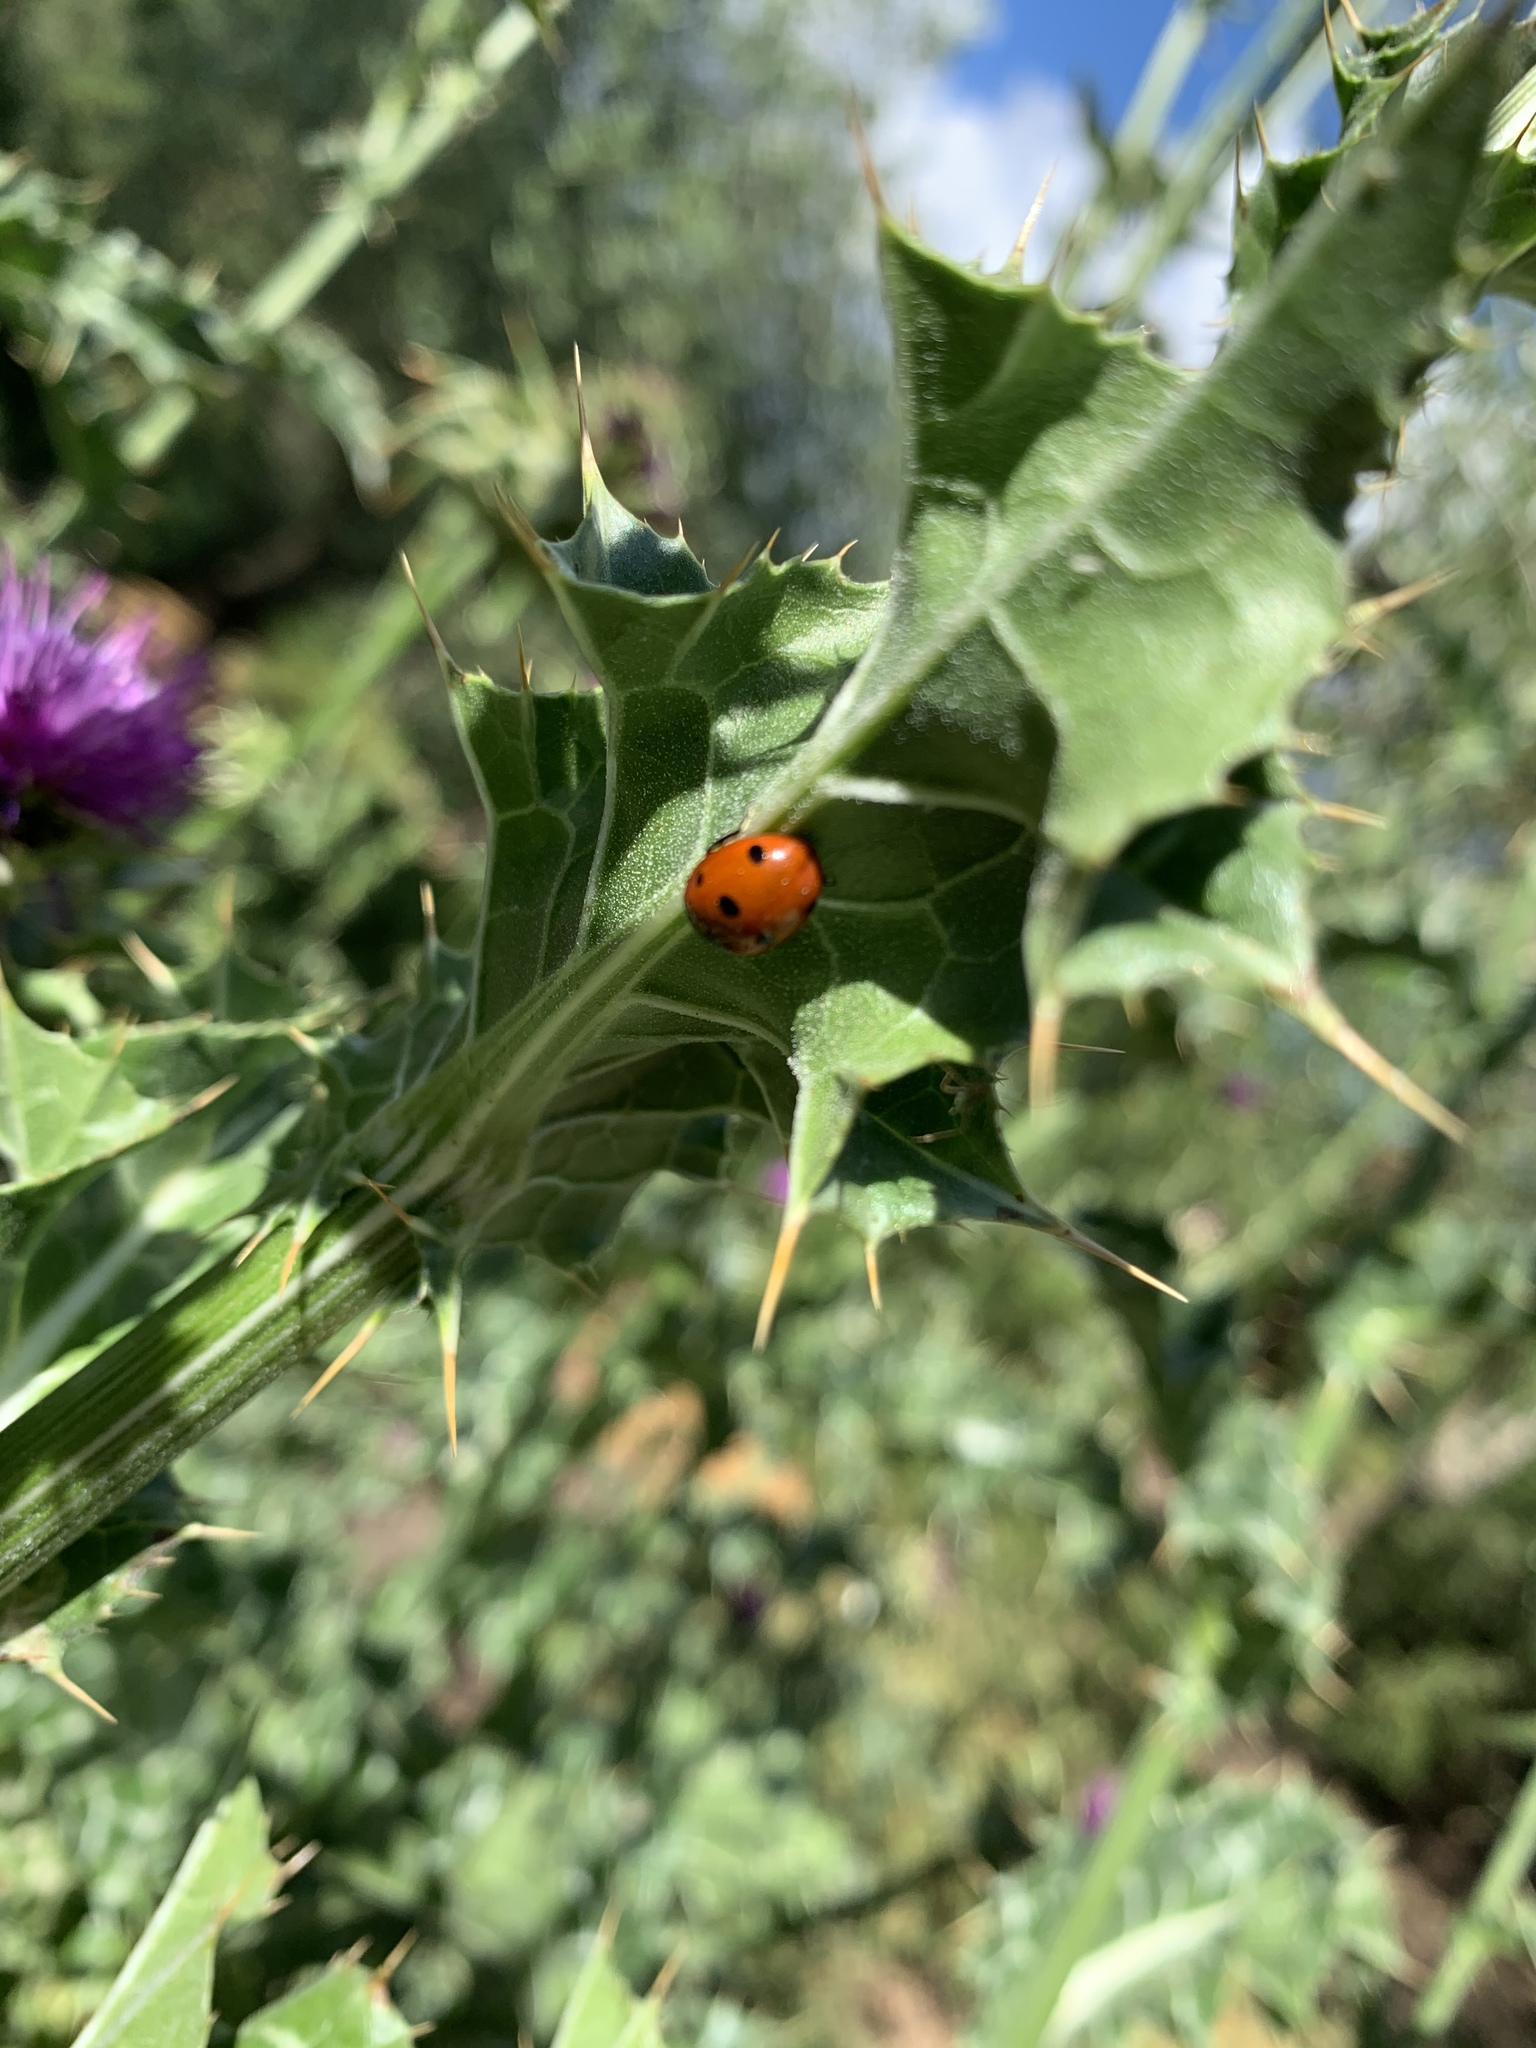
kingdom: Animalia
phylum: Arthropoda
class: Insecta
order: Coleoptera
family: Coccinellidae
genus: Coccinella
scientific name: Coccinella septempunctata
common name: Sevenspotted lady beetle
